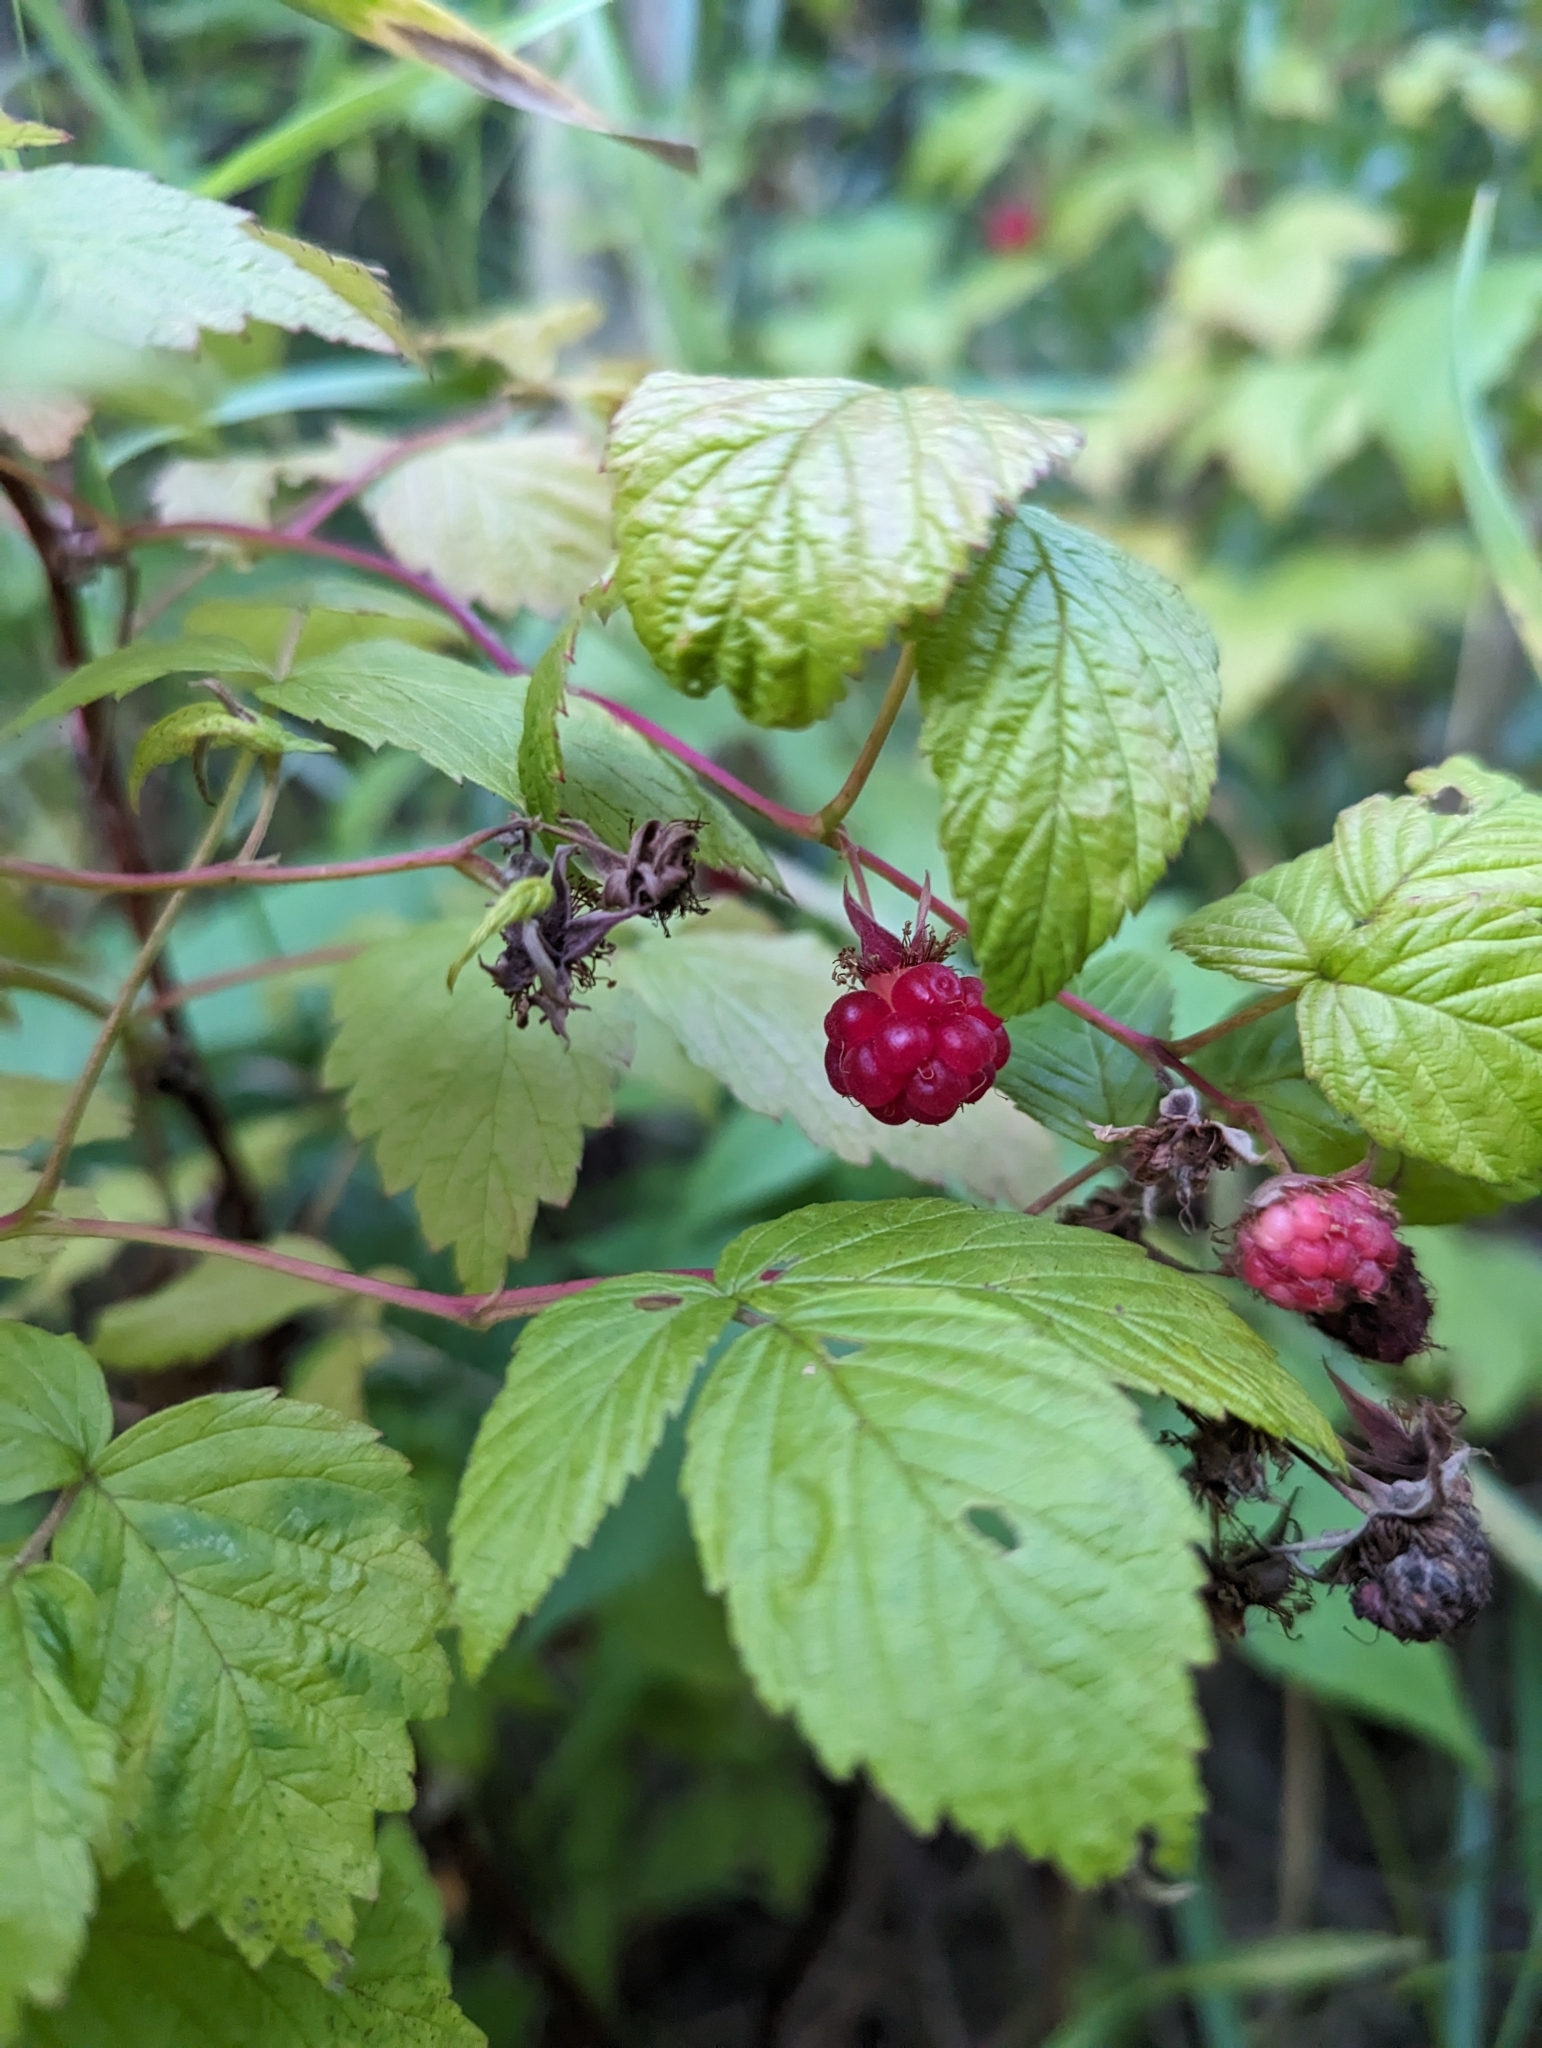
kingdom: Plantae
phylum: Tracheophyta
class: Magnoliopsida
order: Rosales
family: Rosaceae
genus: Rubus
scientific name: Rubus idaeus
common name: Raspberry
